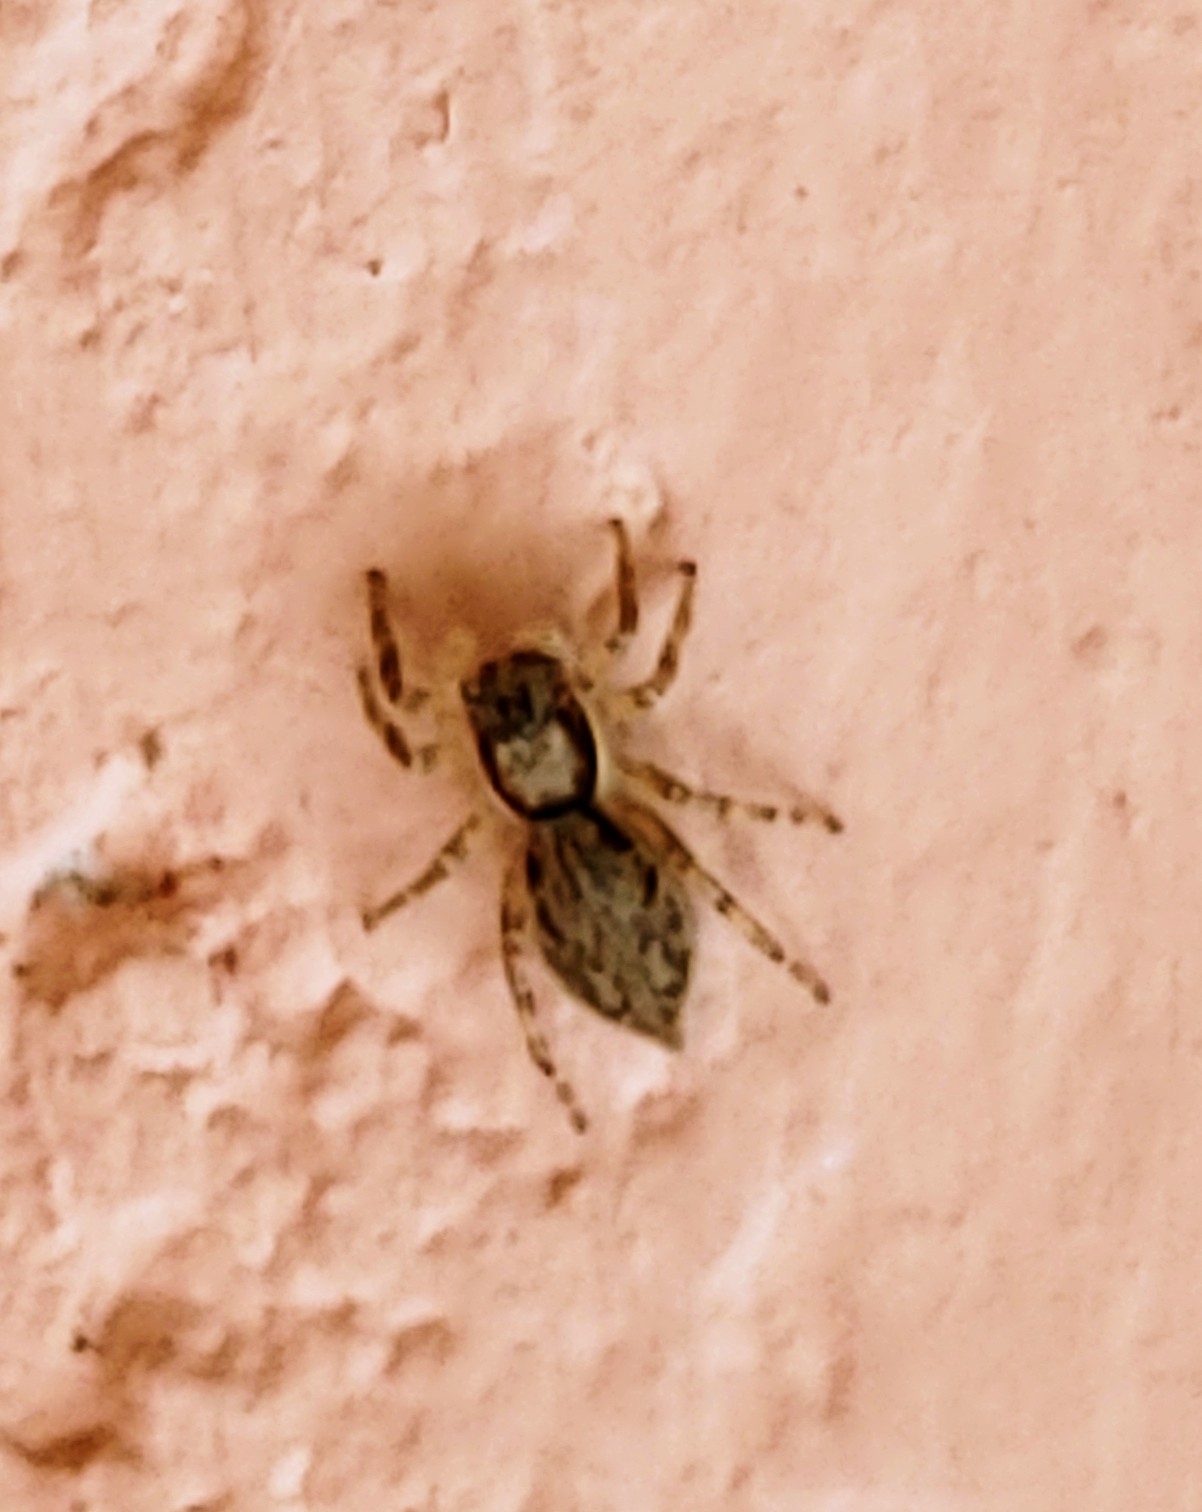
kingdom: Animalia
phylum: Arthropoda
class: Arachnida
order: Araneae
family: Salticidae
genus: Menemerus
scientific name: Menemerus bivittatus
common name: Gray wall jumper
